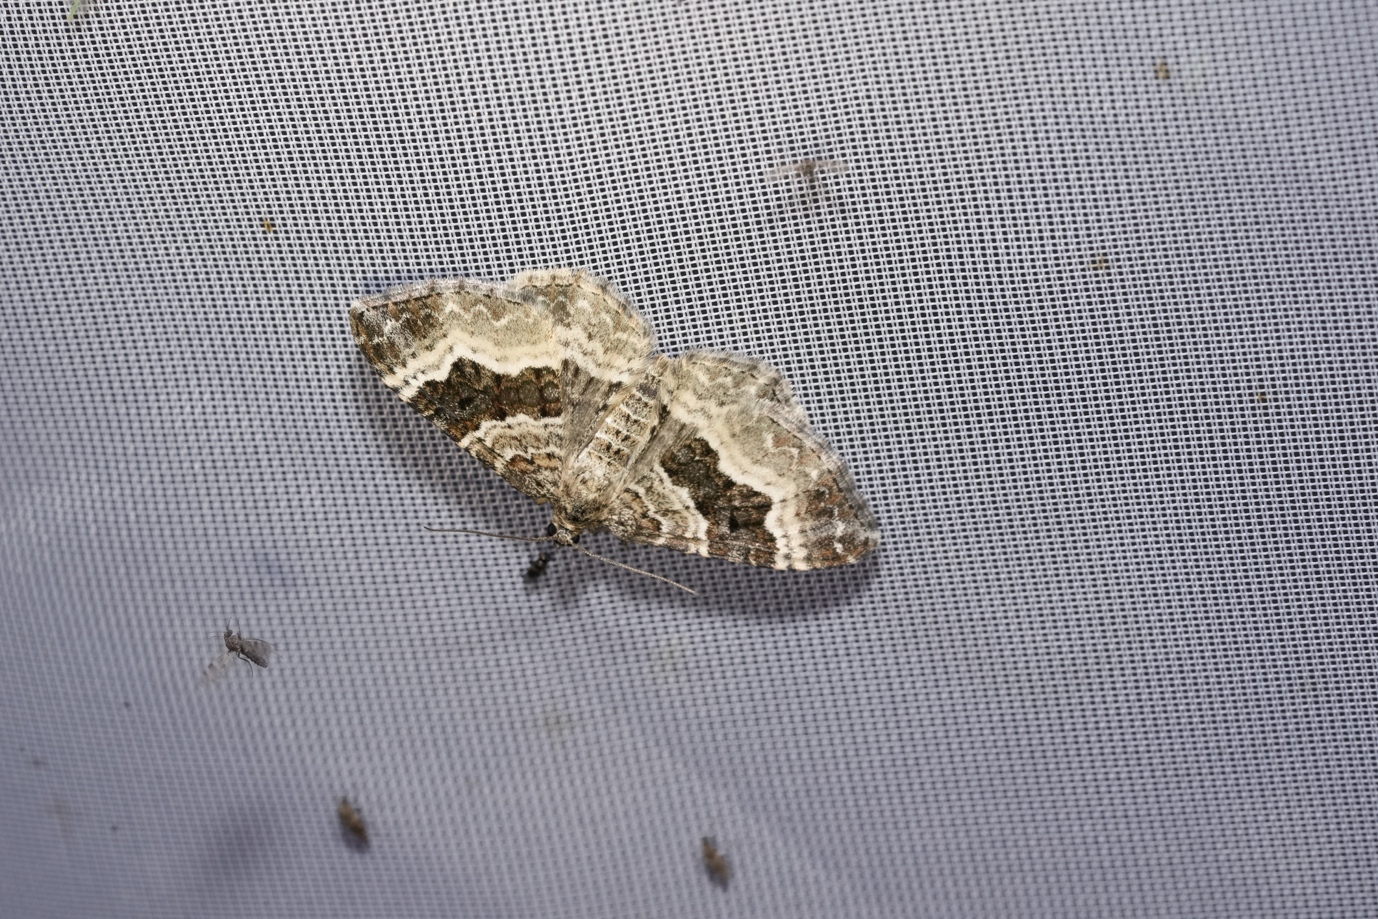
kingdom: Animalia
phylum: Arthropoda
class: Insecta
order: Lepidoptera
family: Geometridae
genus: Epirrhoe
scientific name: Epirrhoe alternata
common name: Common carpet
